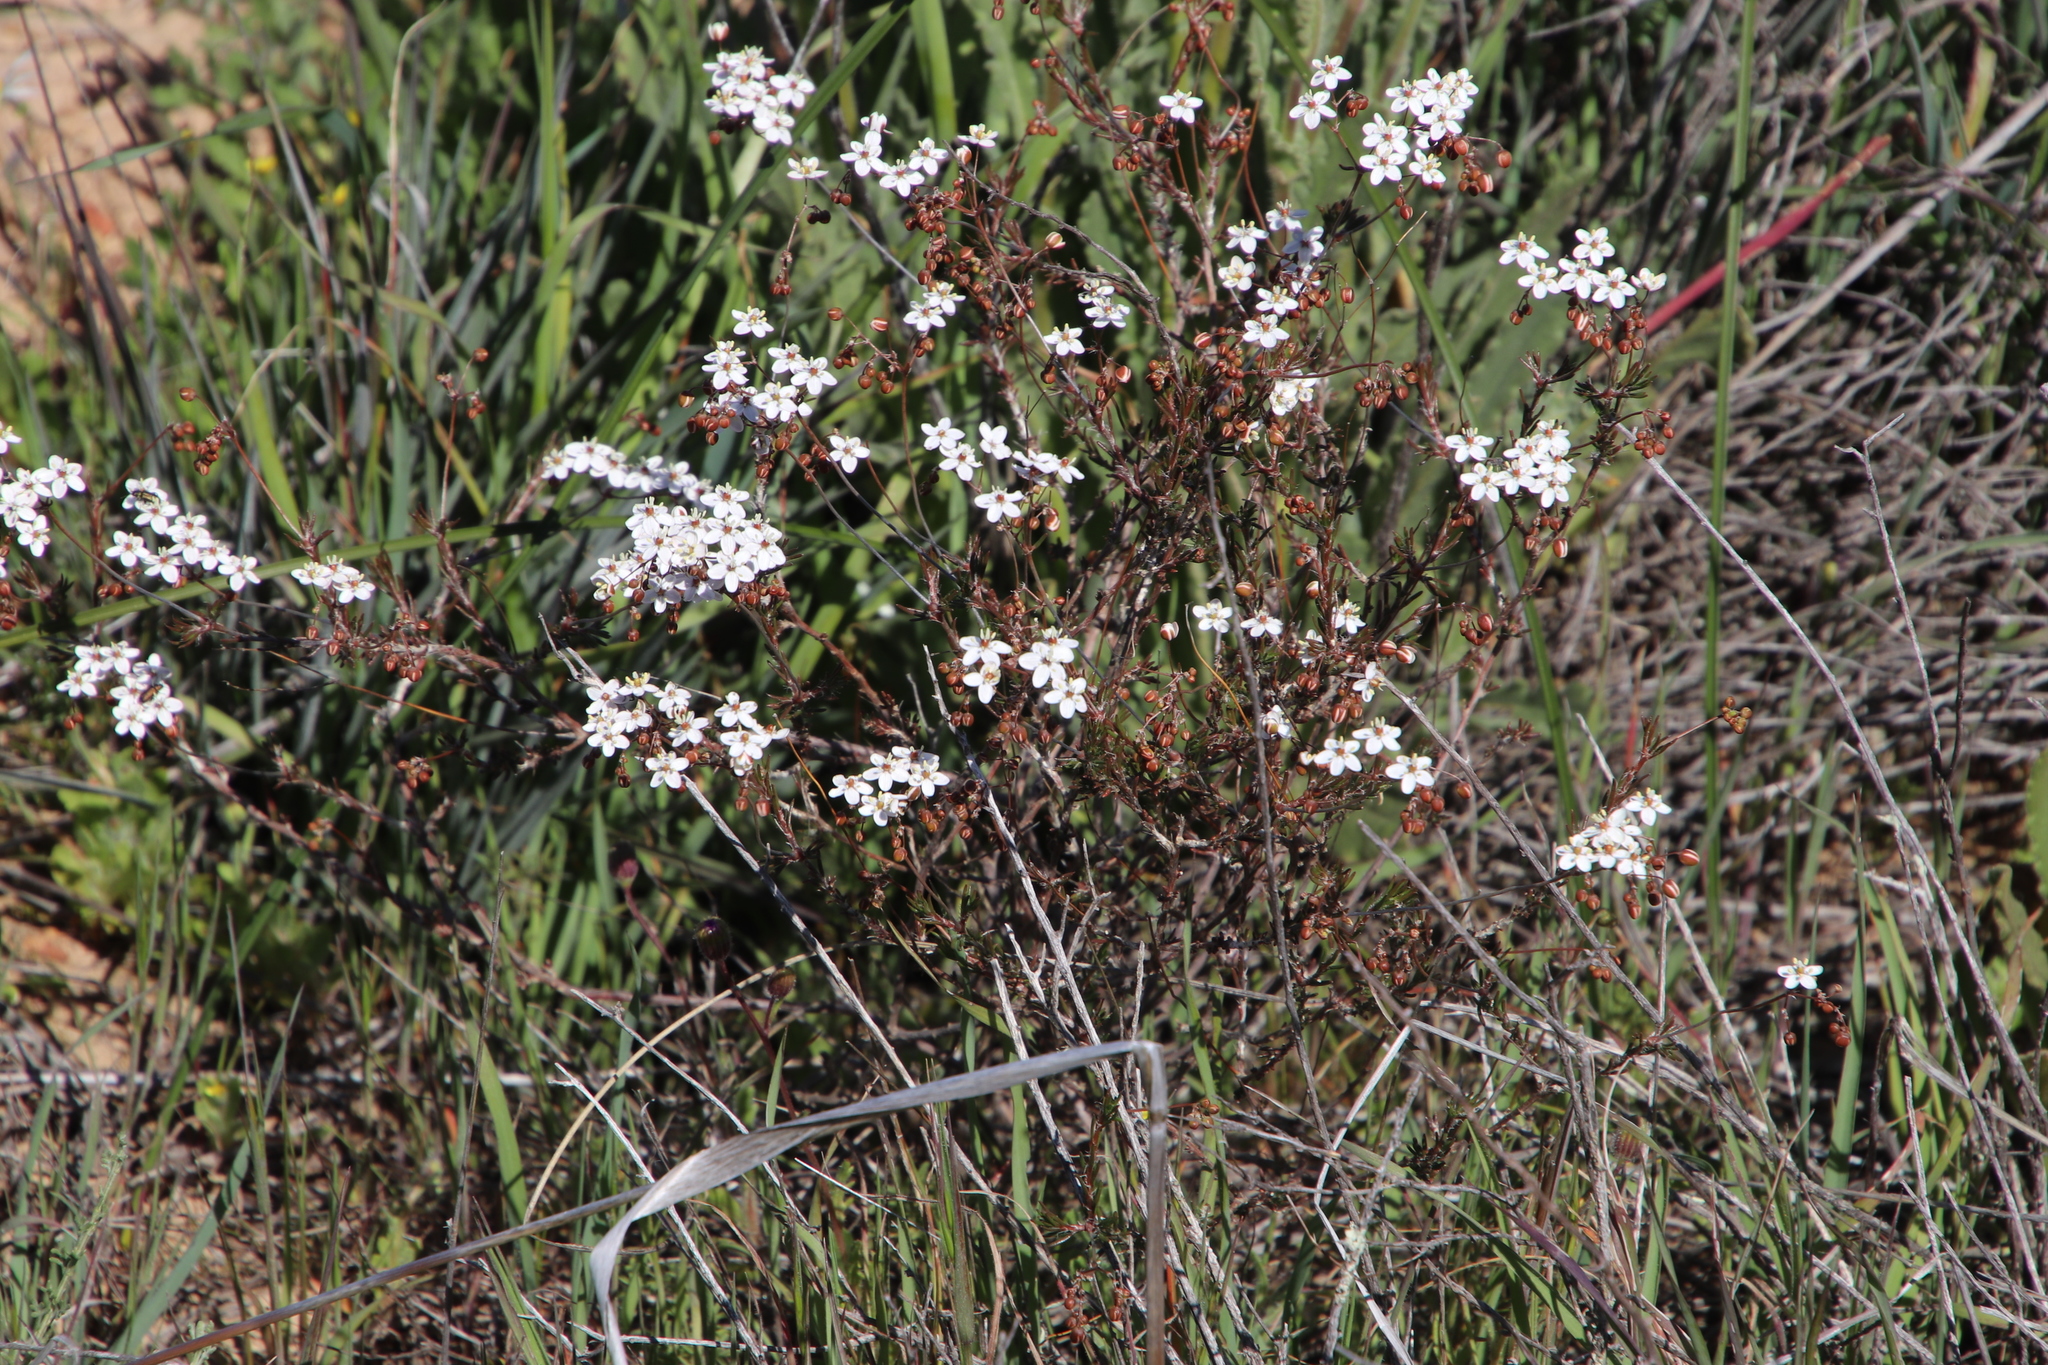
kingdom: Plantae
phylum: Tracheophyta
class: Magnoliopsida
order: Caryophyllales
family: Molluginaceae
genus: Pharnaceum
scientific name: Pharnaceum aurantium
